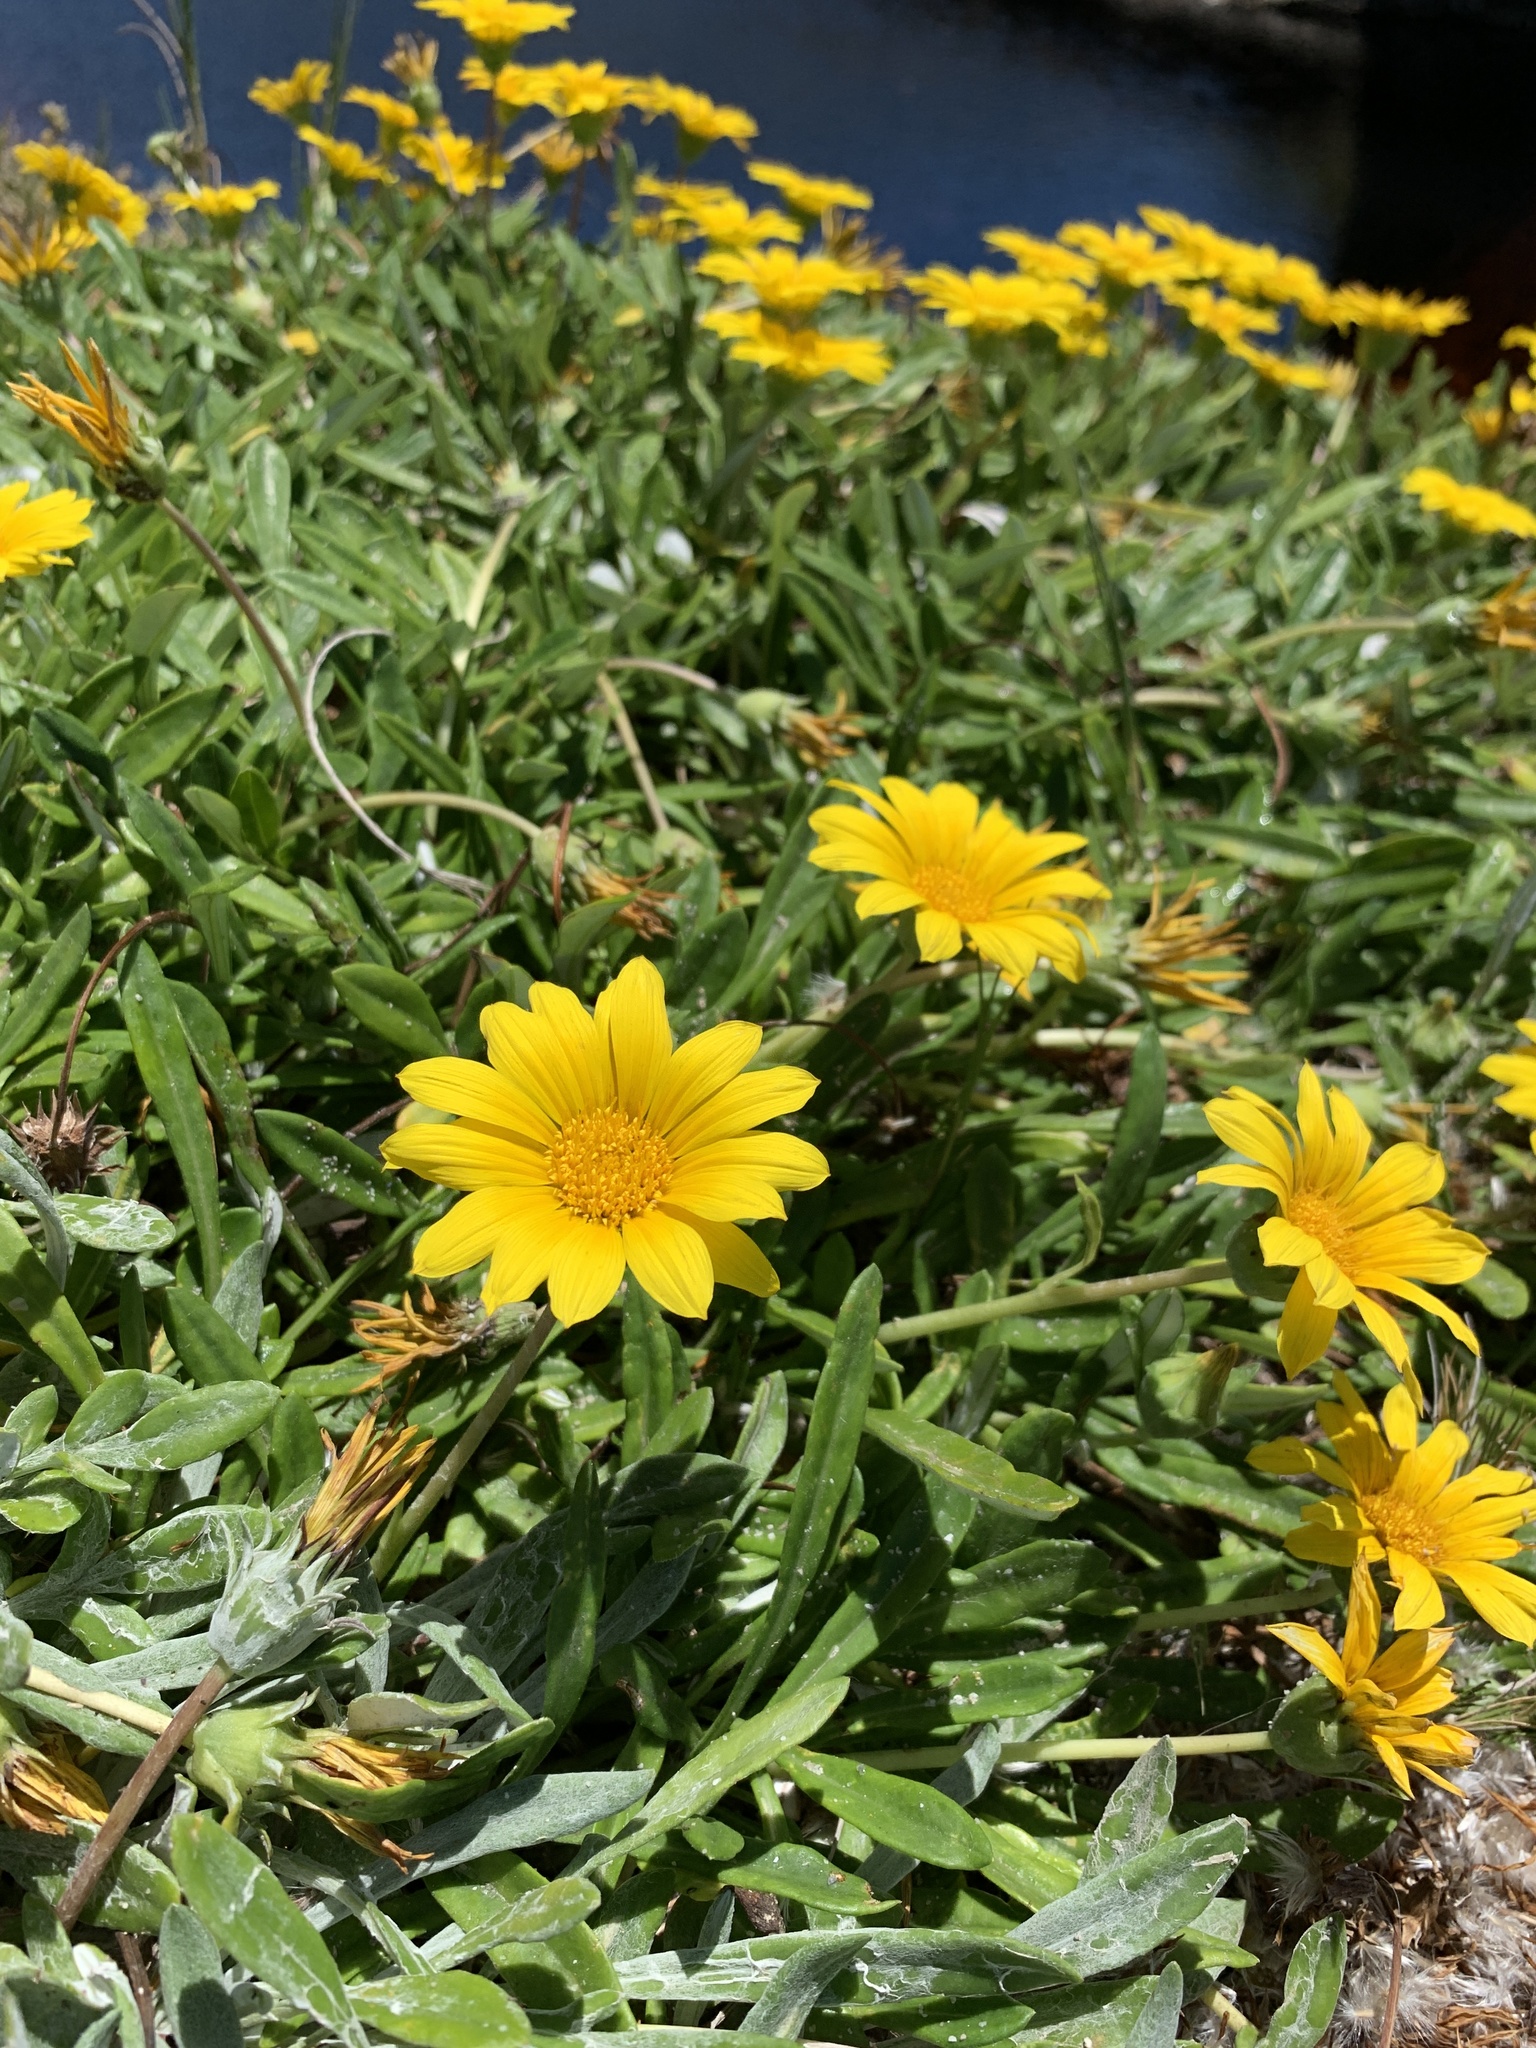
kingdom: Plantae
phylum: Tracheophyta
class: Magnoliopsida
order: Asterales
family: Asteraceae
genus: Gazania
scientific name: Gazania rigens
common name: Treasureflower
